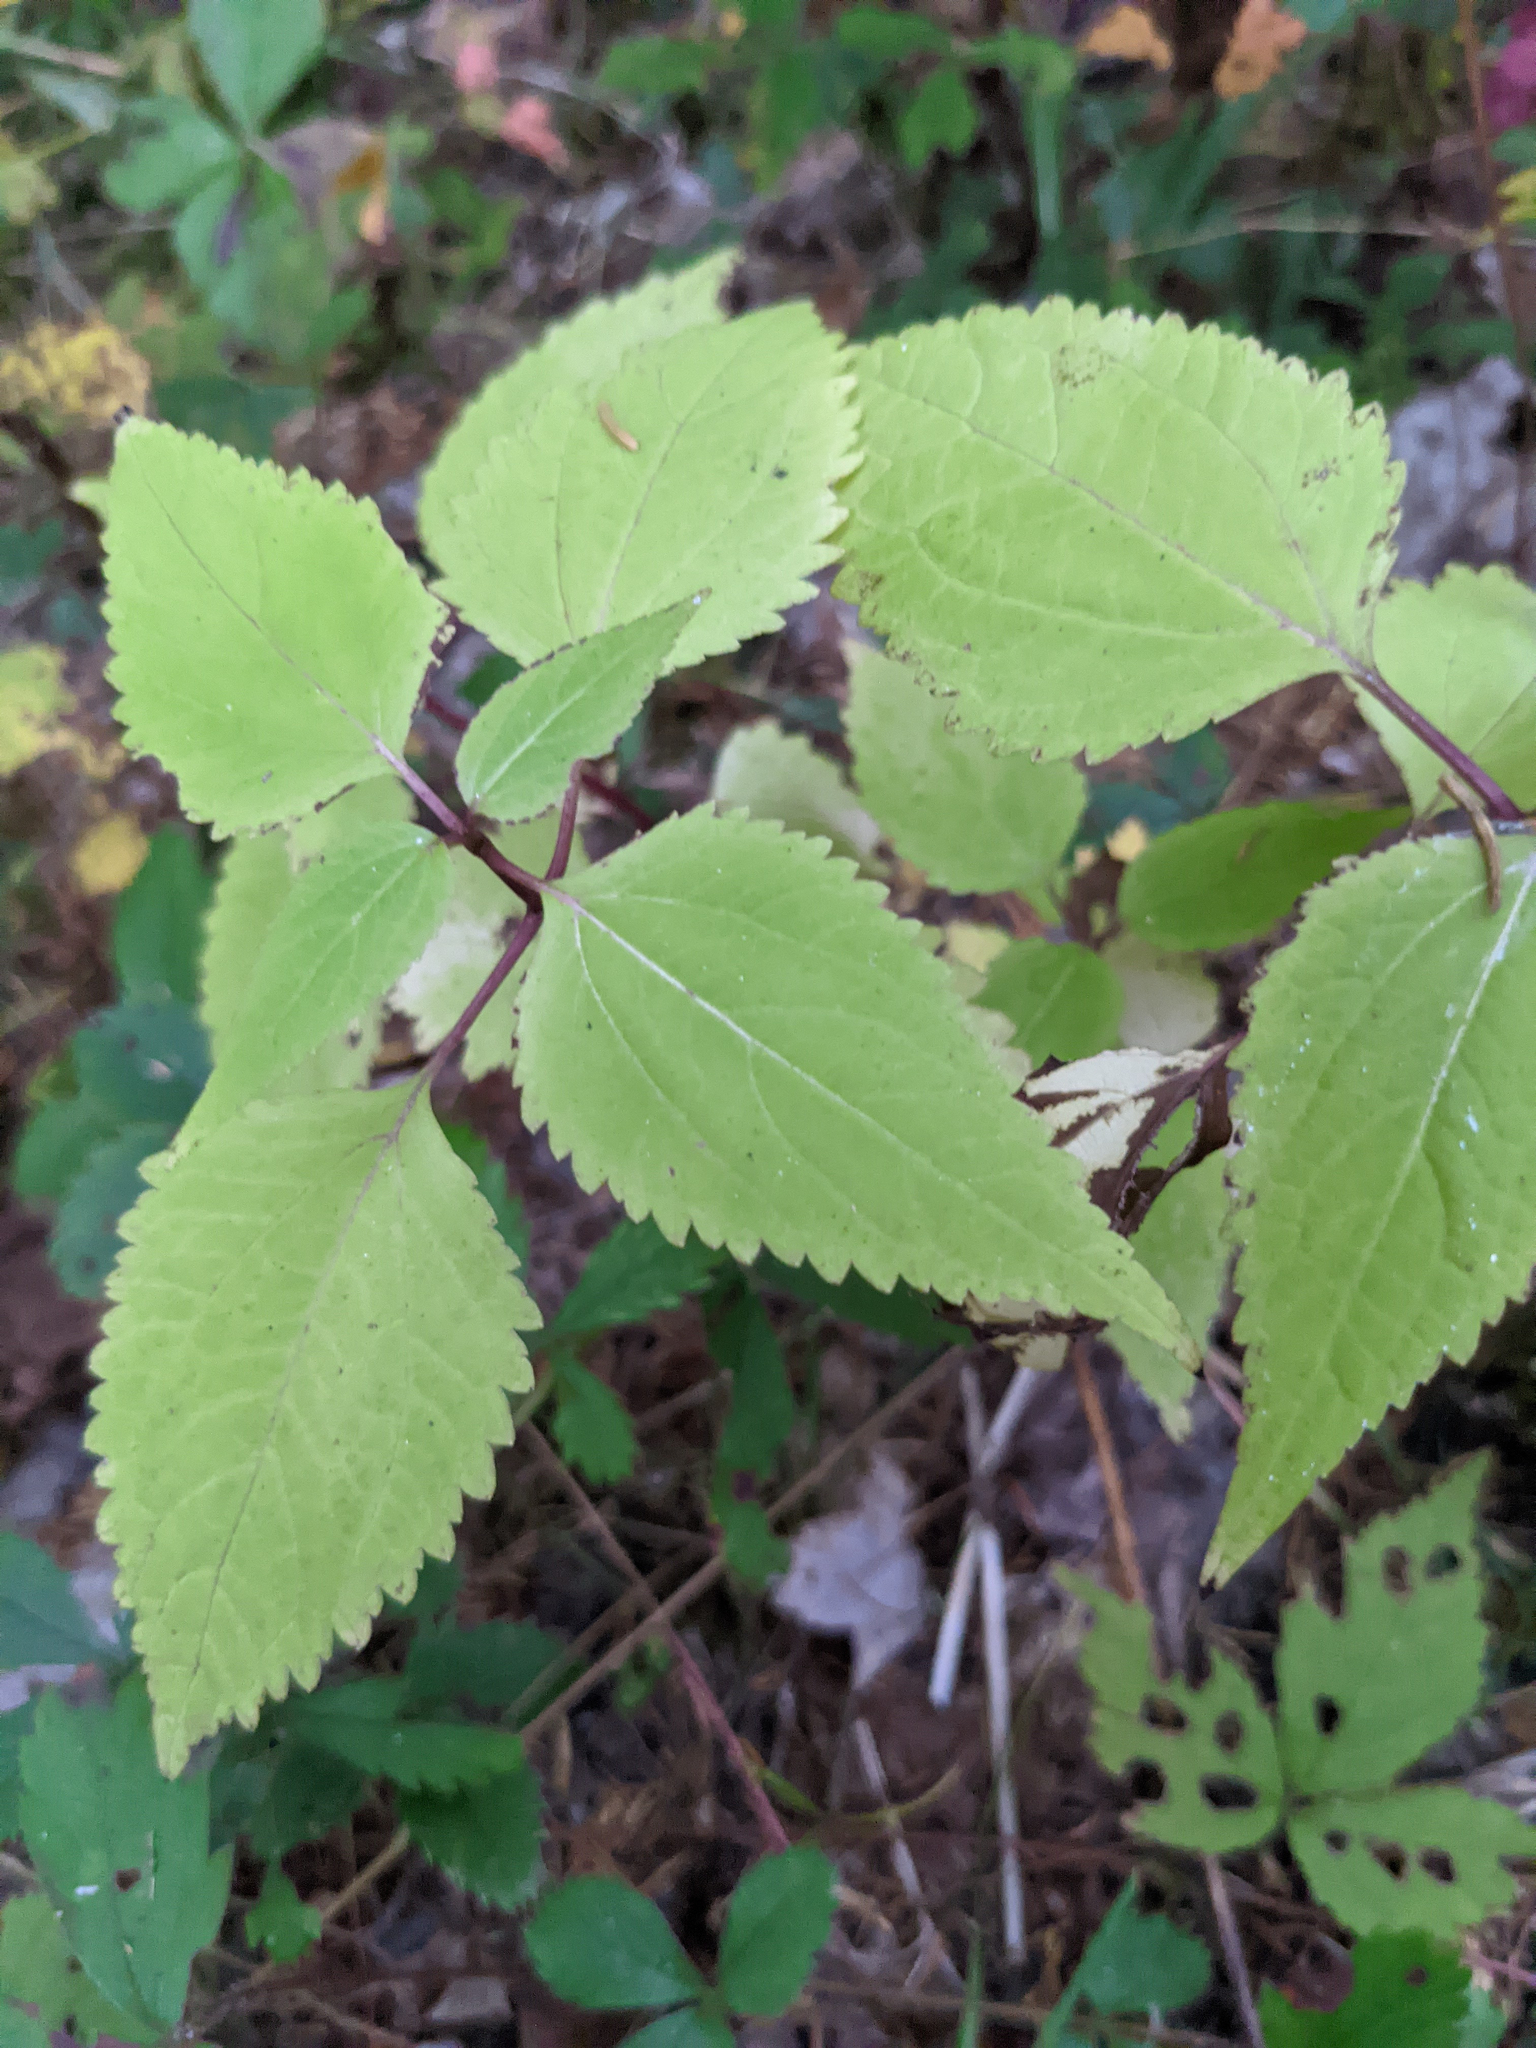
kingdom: Plantae
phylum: Tracheophyta
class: Magnoliopsida
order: Asterales
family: Asteraceae
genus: Ageratina
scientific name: Ageratina altissima
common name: White snakeroot
